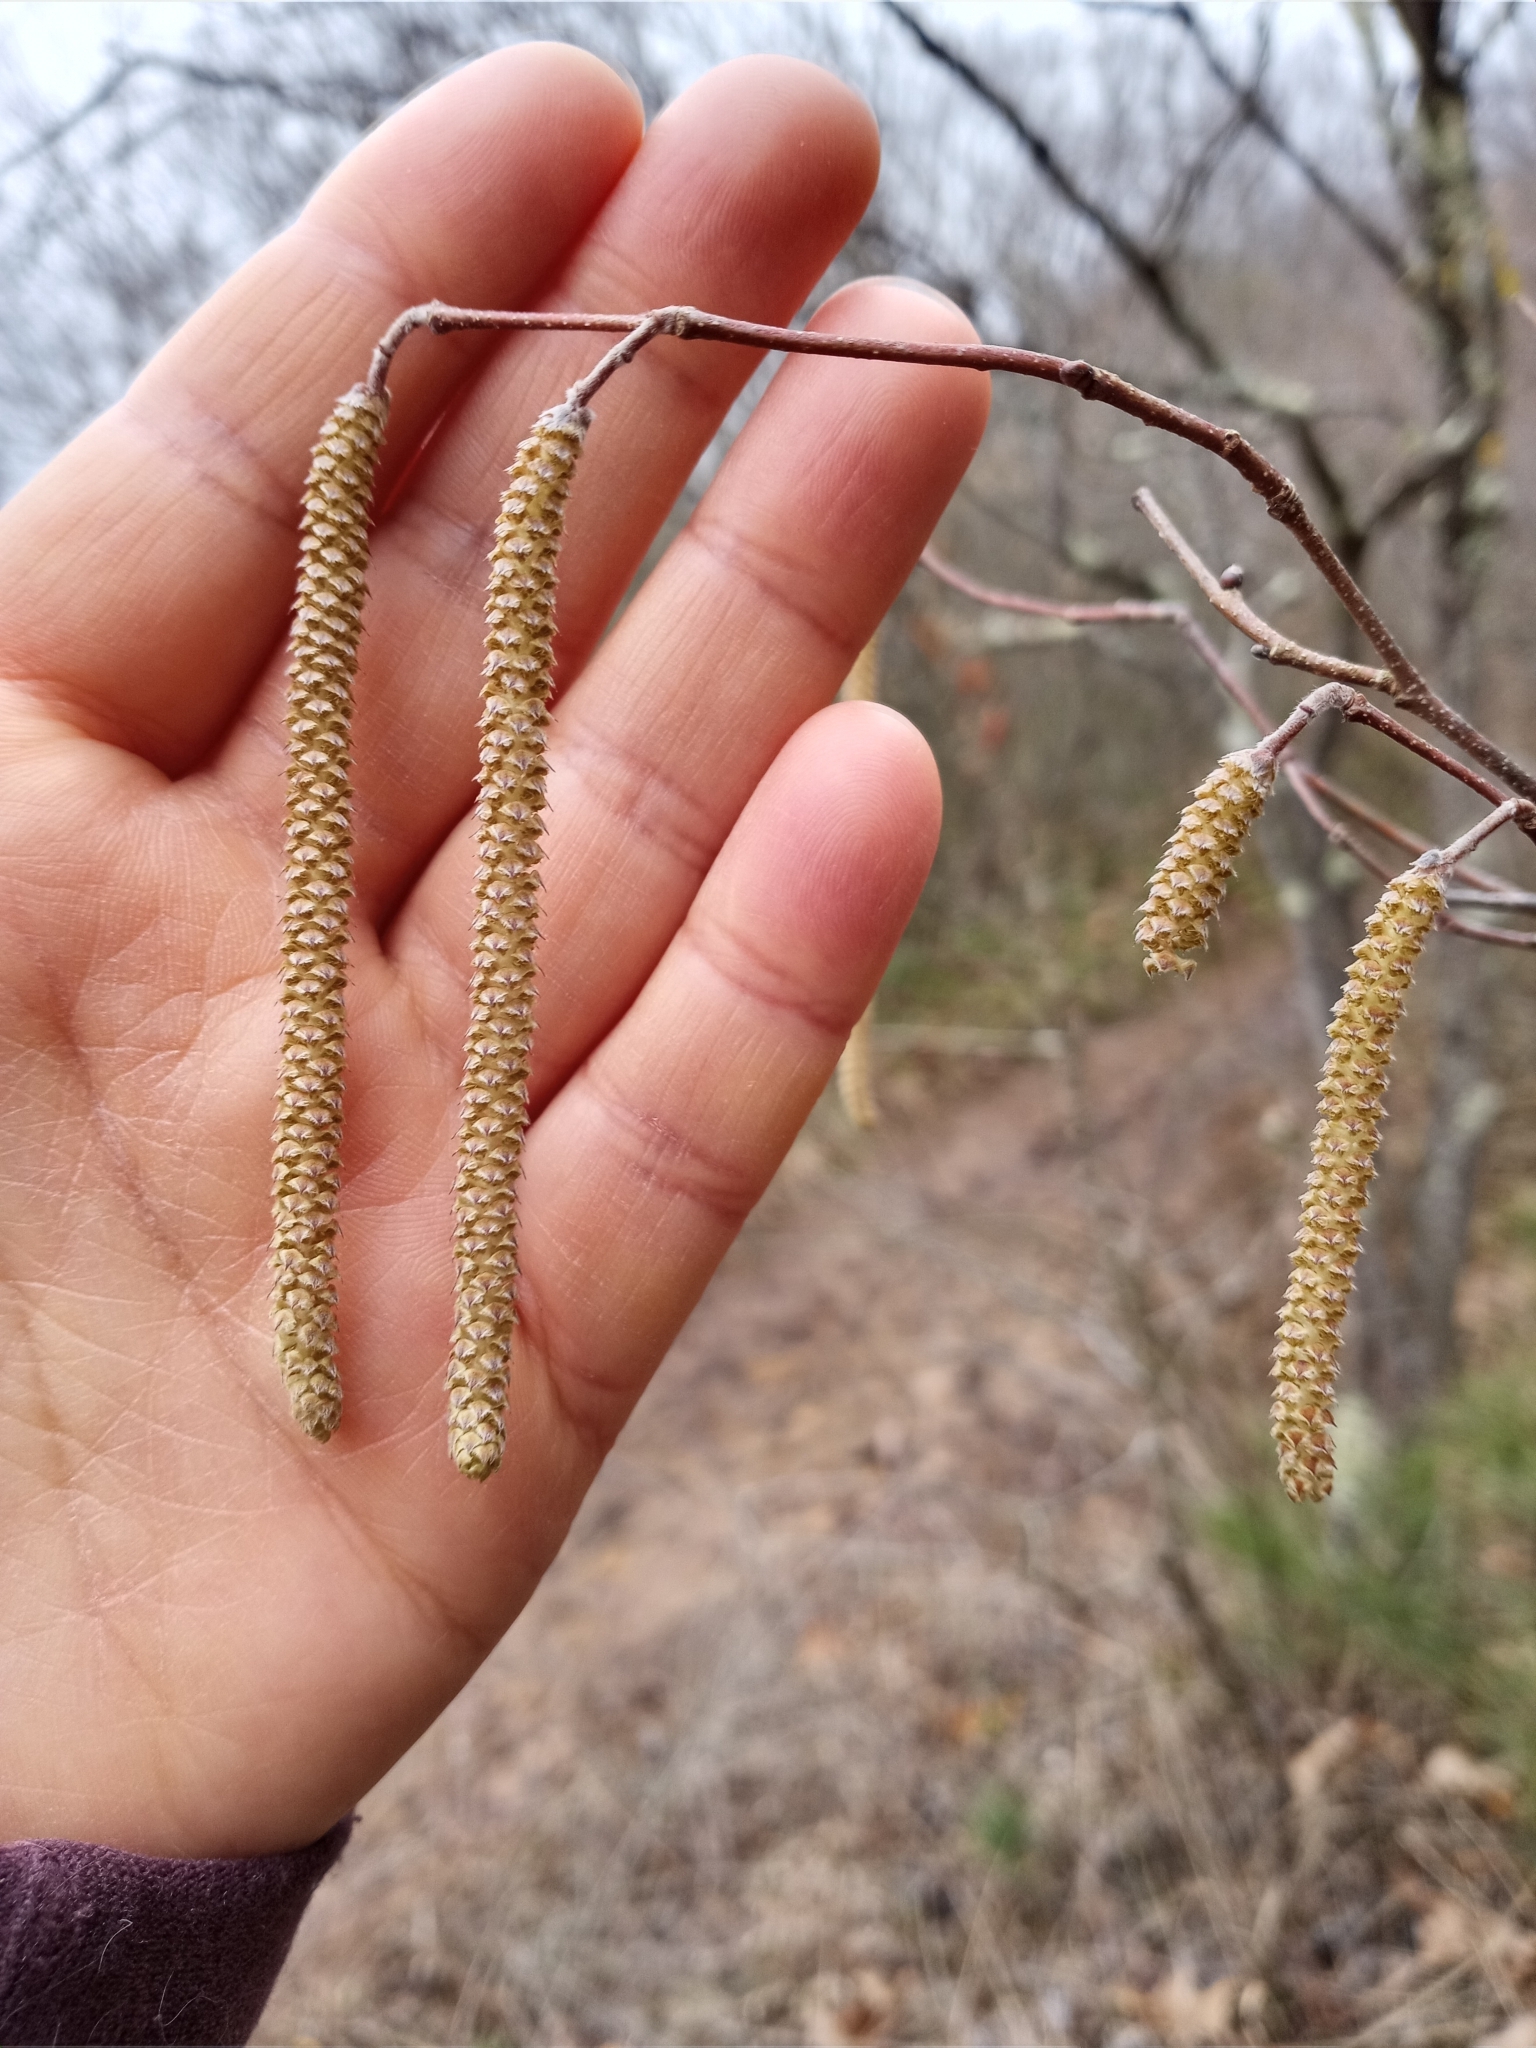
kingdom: Plantae
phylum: Tracheophyta
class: Magnoliopsida
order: Fagales
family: Betulaceae
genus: Corylus
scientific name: Corylus americana
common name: American hazel
